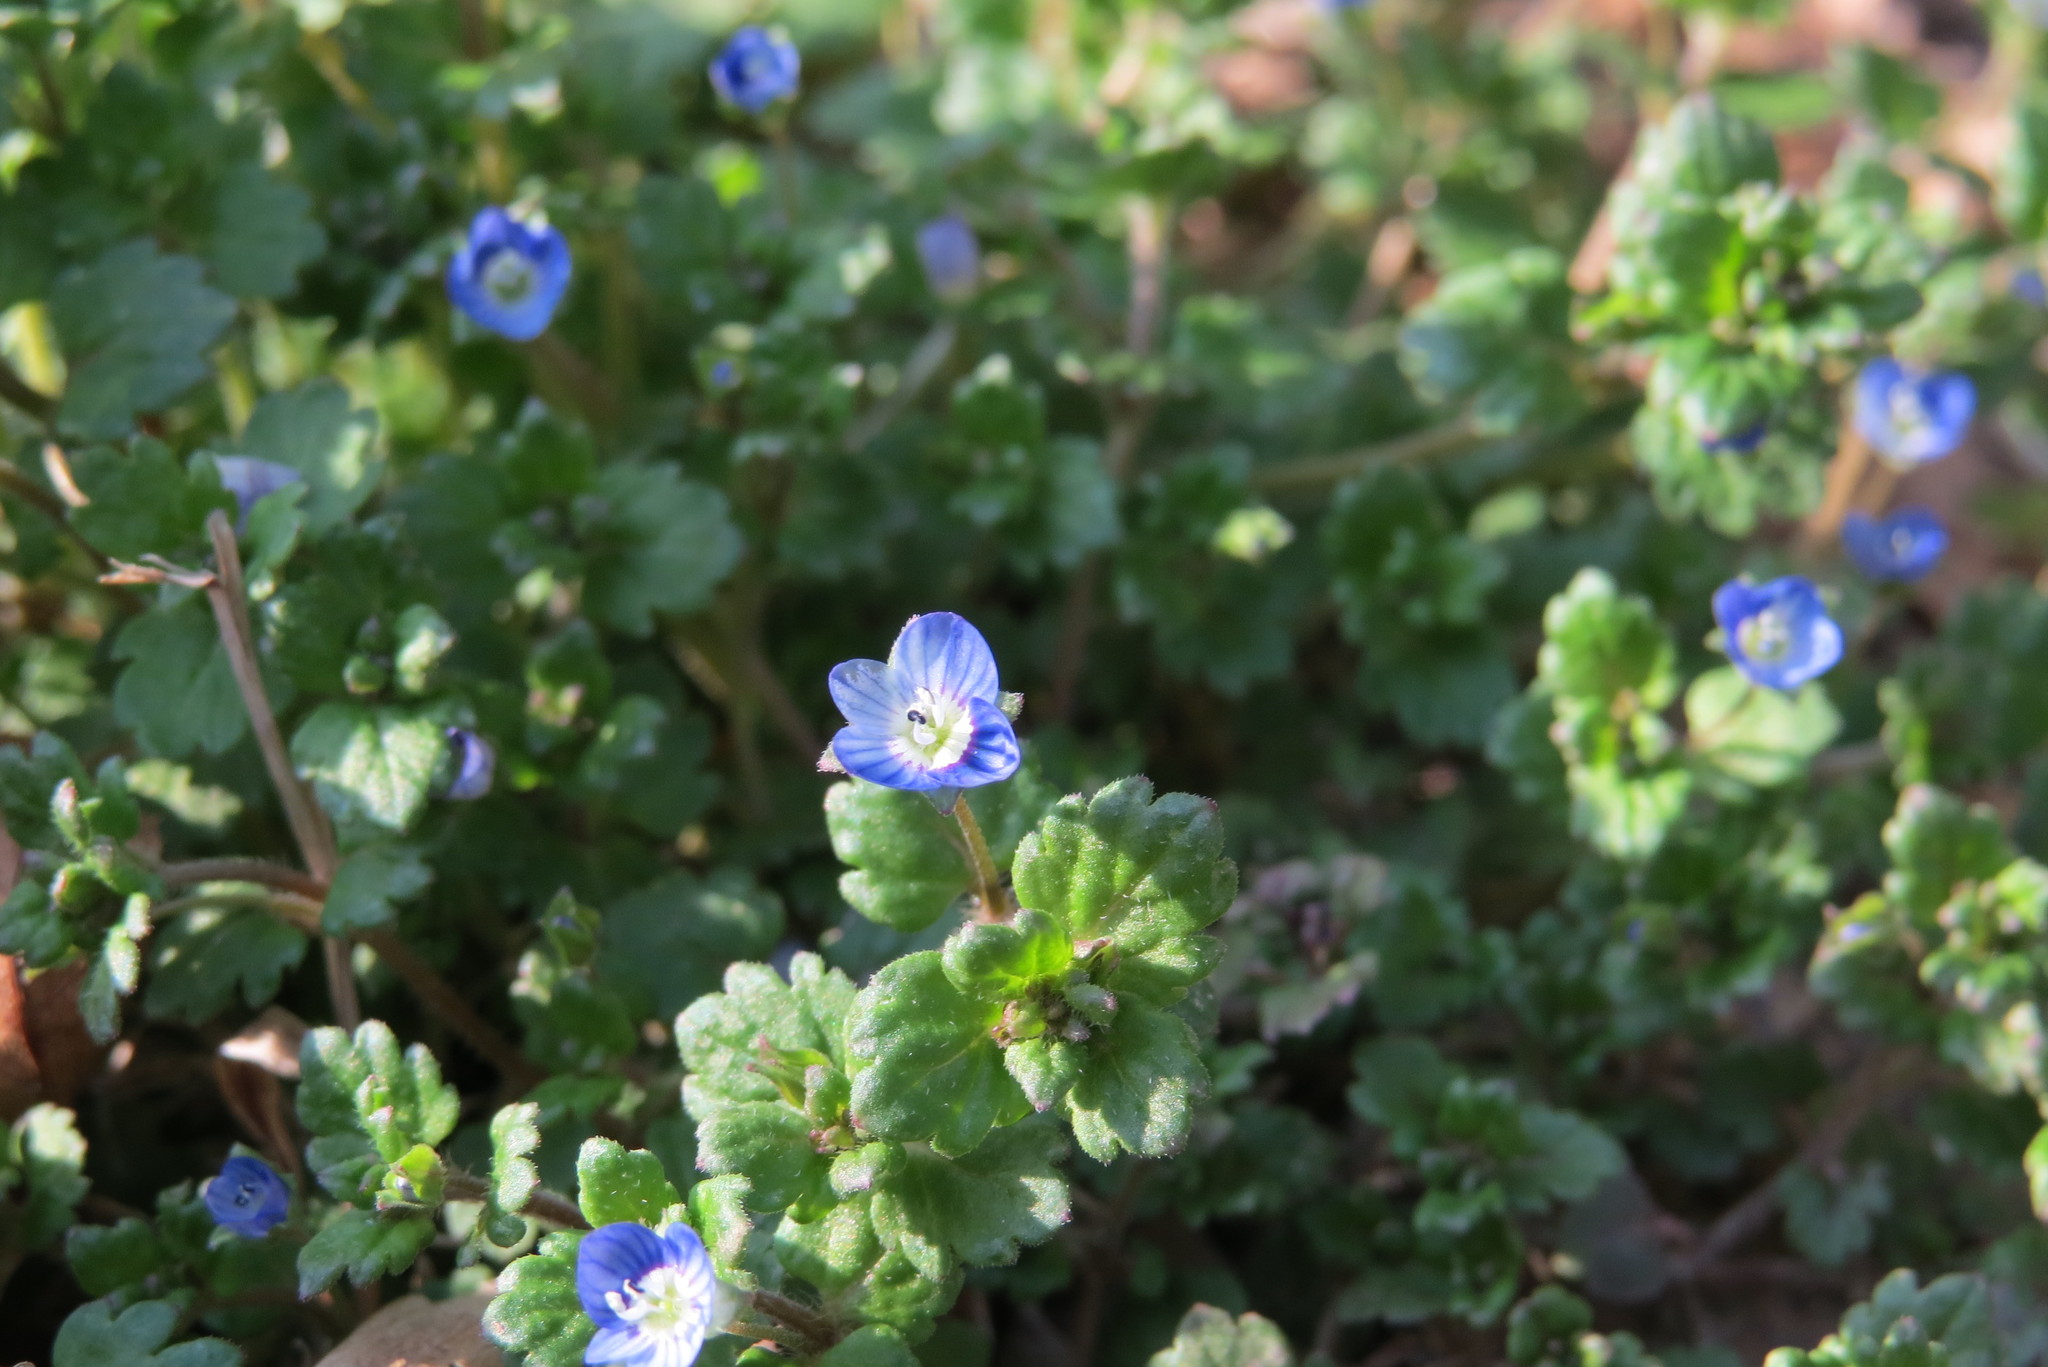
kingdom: Plantae
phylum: Tracheophyta
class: Magnoliopsida
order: Lamiales
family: Plantaginaceae
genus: Veronica
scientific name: Veronica persica
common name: Common field-speedwell
